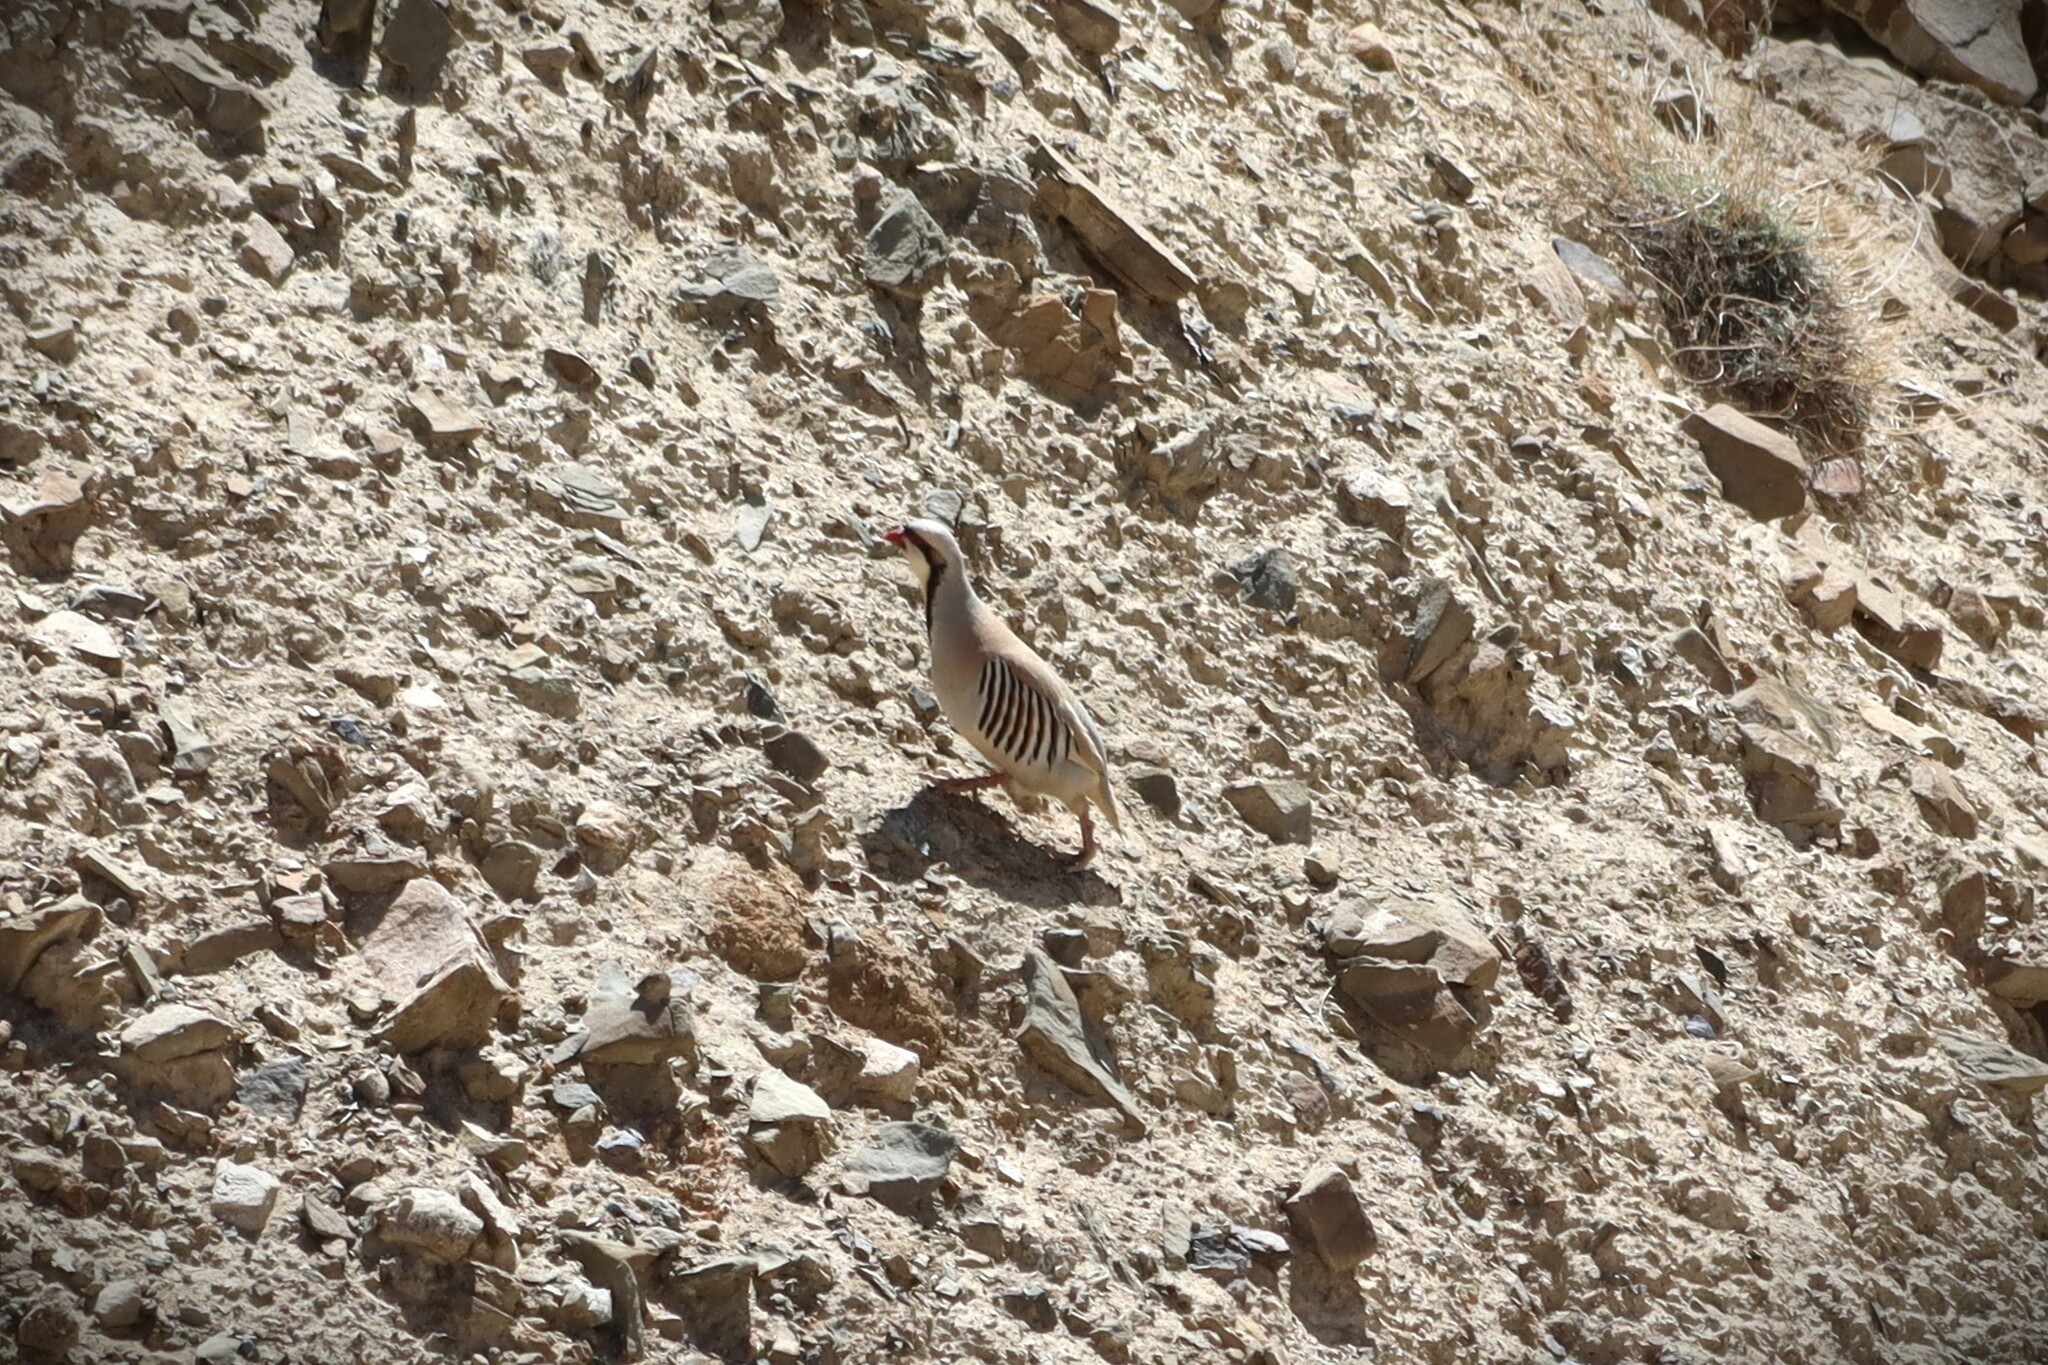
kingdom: Animalia
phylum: Chordata
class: Aves
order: Galliformes
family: Phasianidae
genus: Alectoris
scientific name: Alectoris chukar
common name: Chukar
